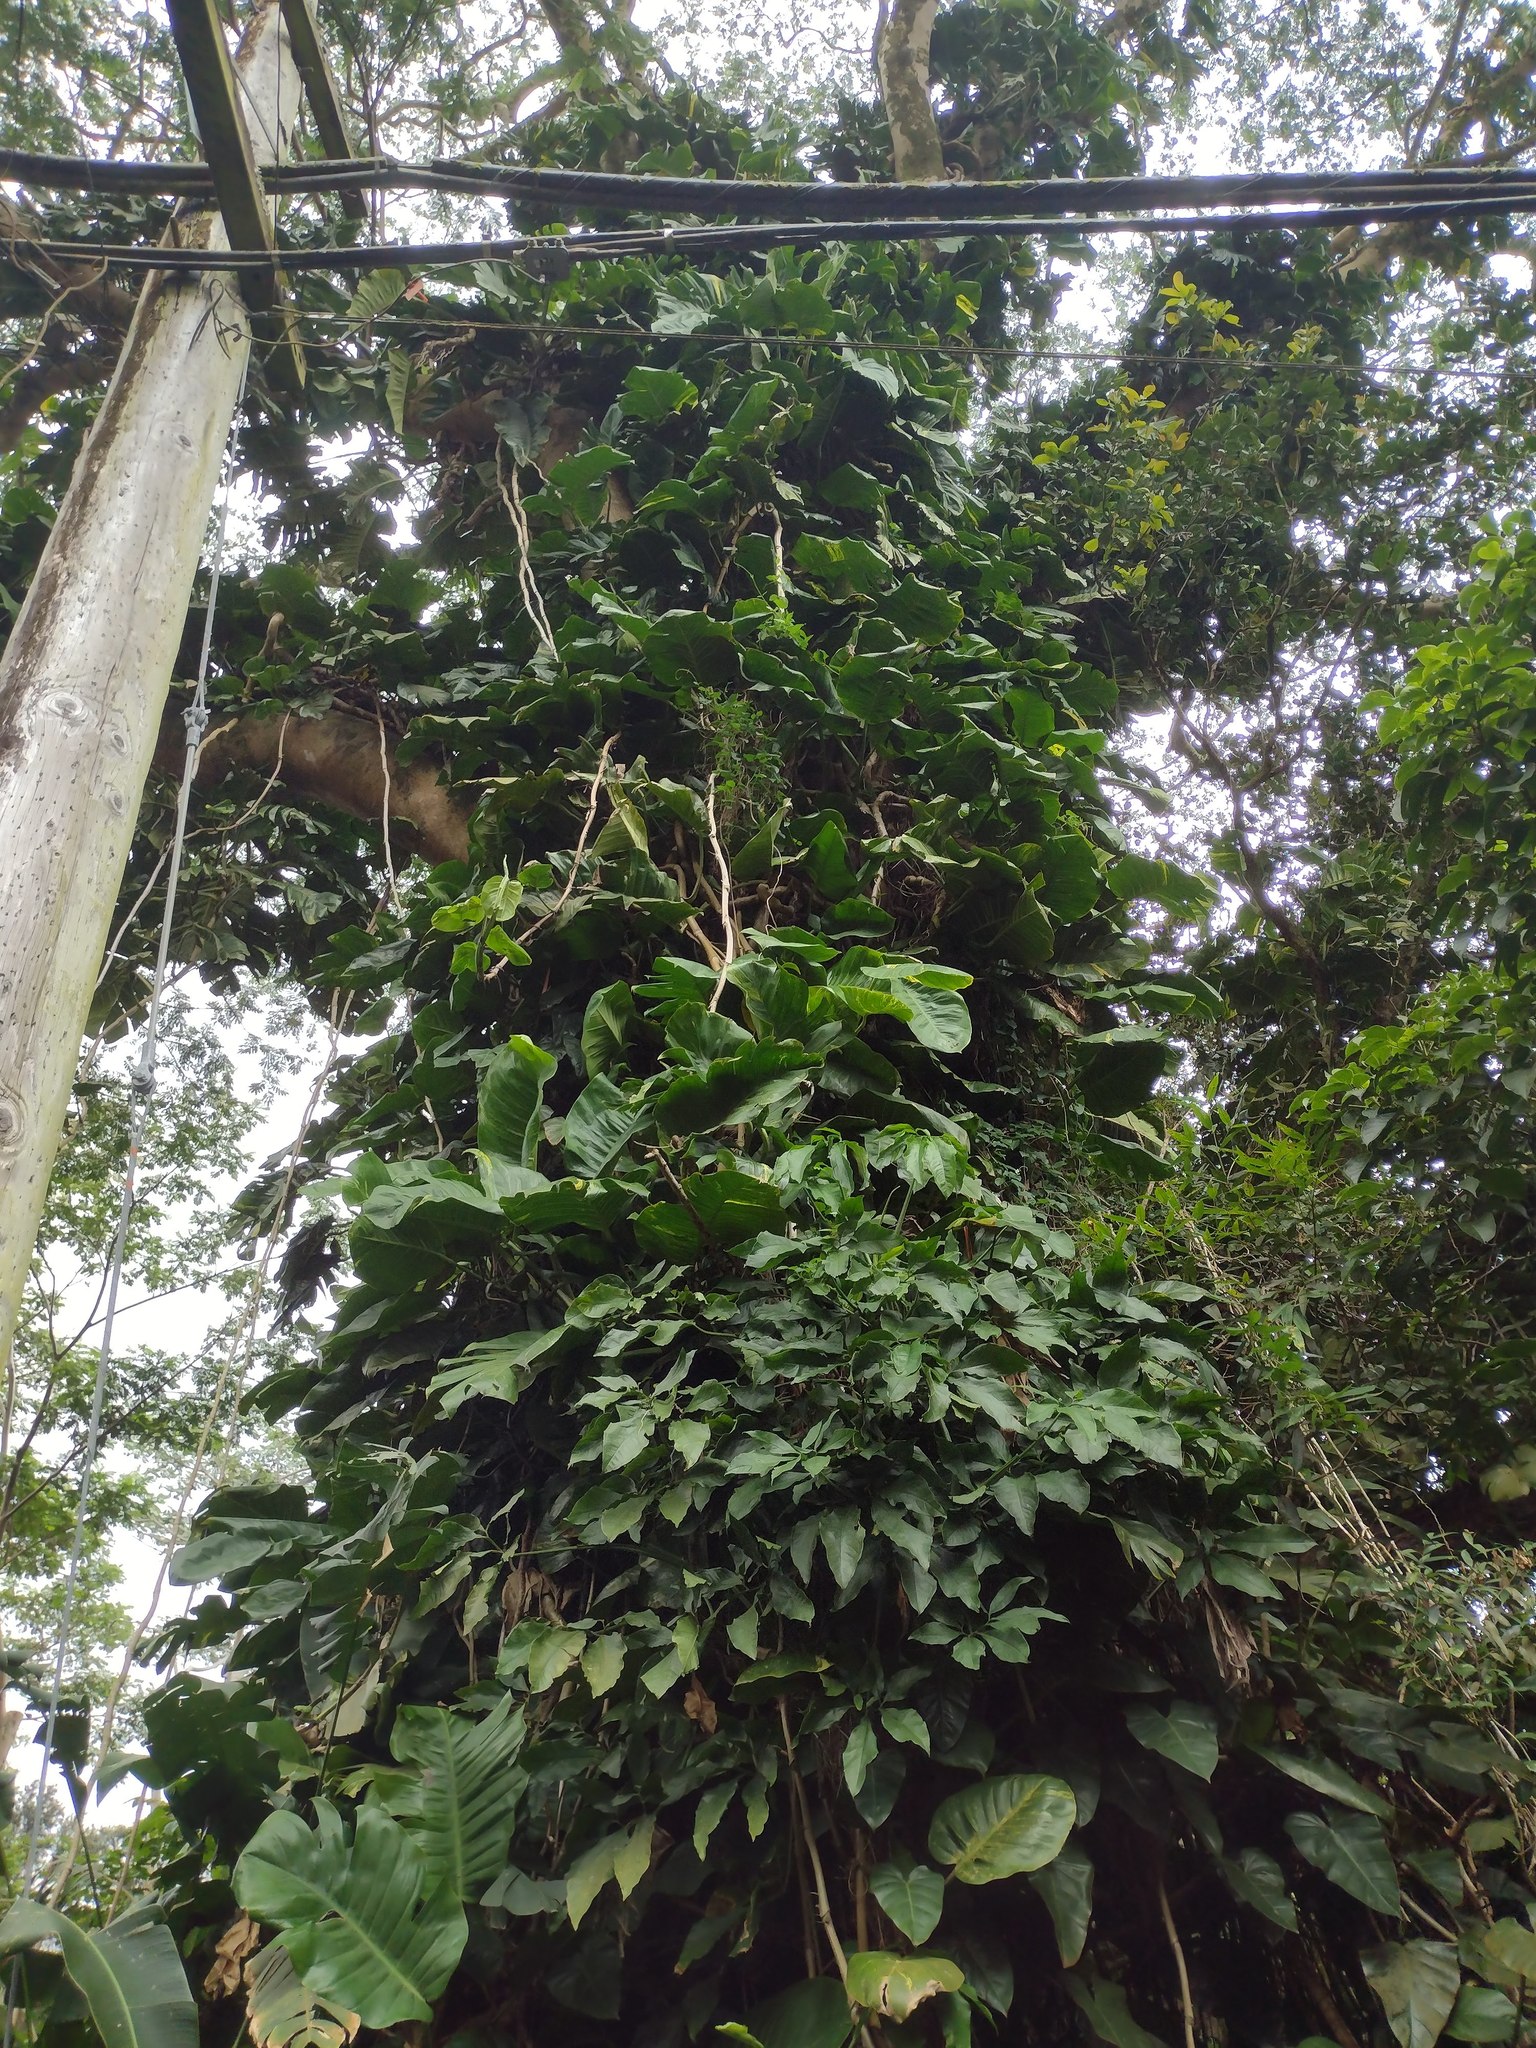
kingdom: Plantae
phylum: Tracheophyta
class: Liliopsida
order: Alismatales
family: Araceae
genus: Epipremnum
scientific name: Epipremnum aureum
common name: Golden hunter's-robe
